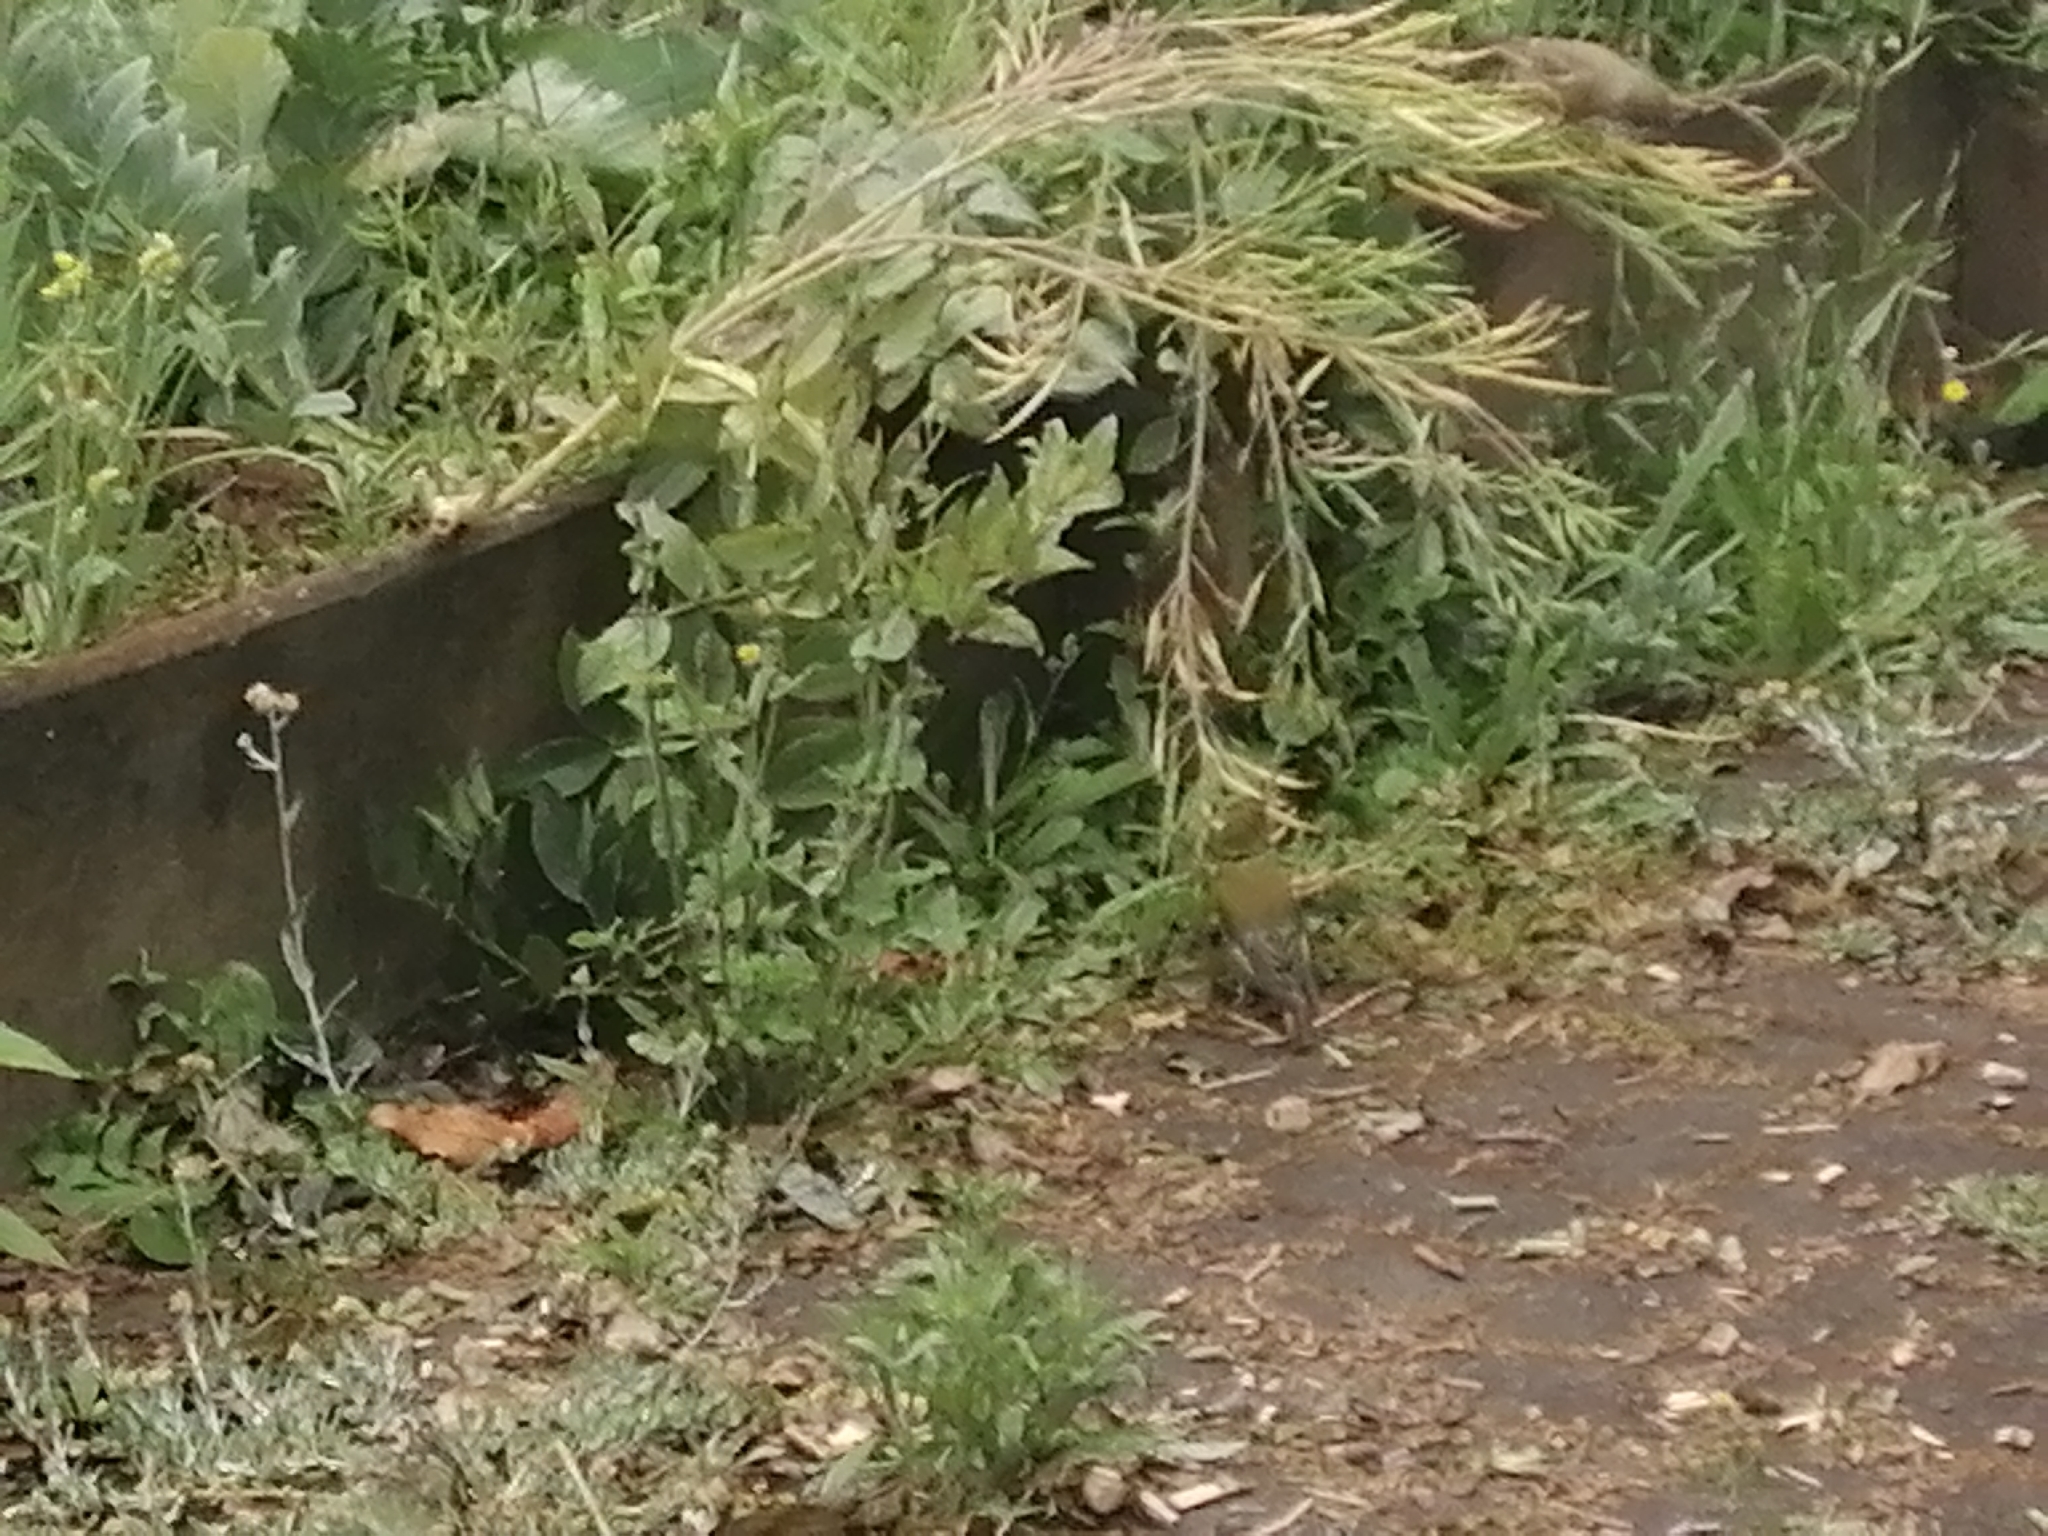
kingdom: Plantae
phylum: Tracheophyta
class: Liliopsida
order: Poales
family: Poaceae
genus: Chloris
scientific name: Chloris chloris
